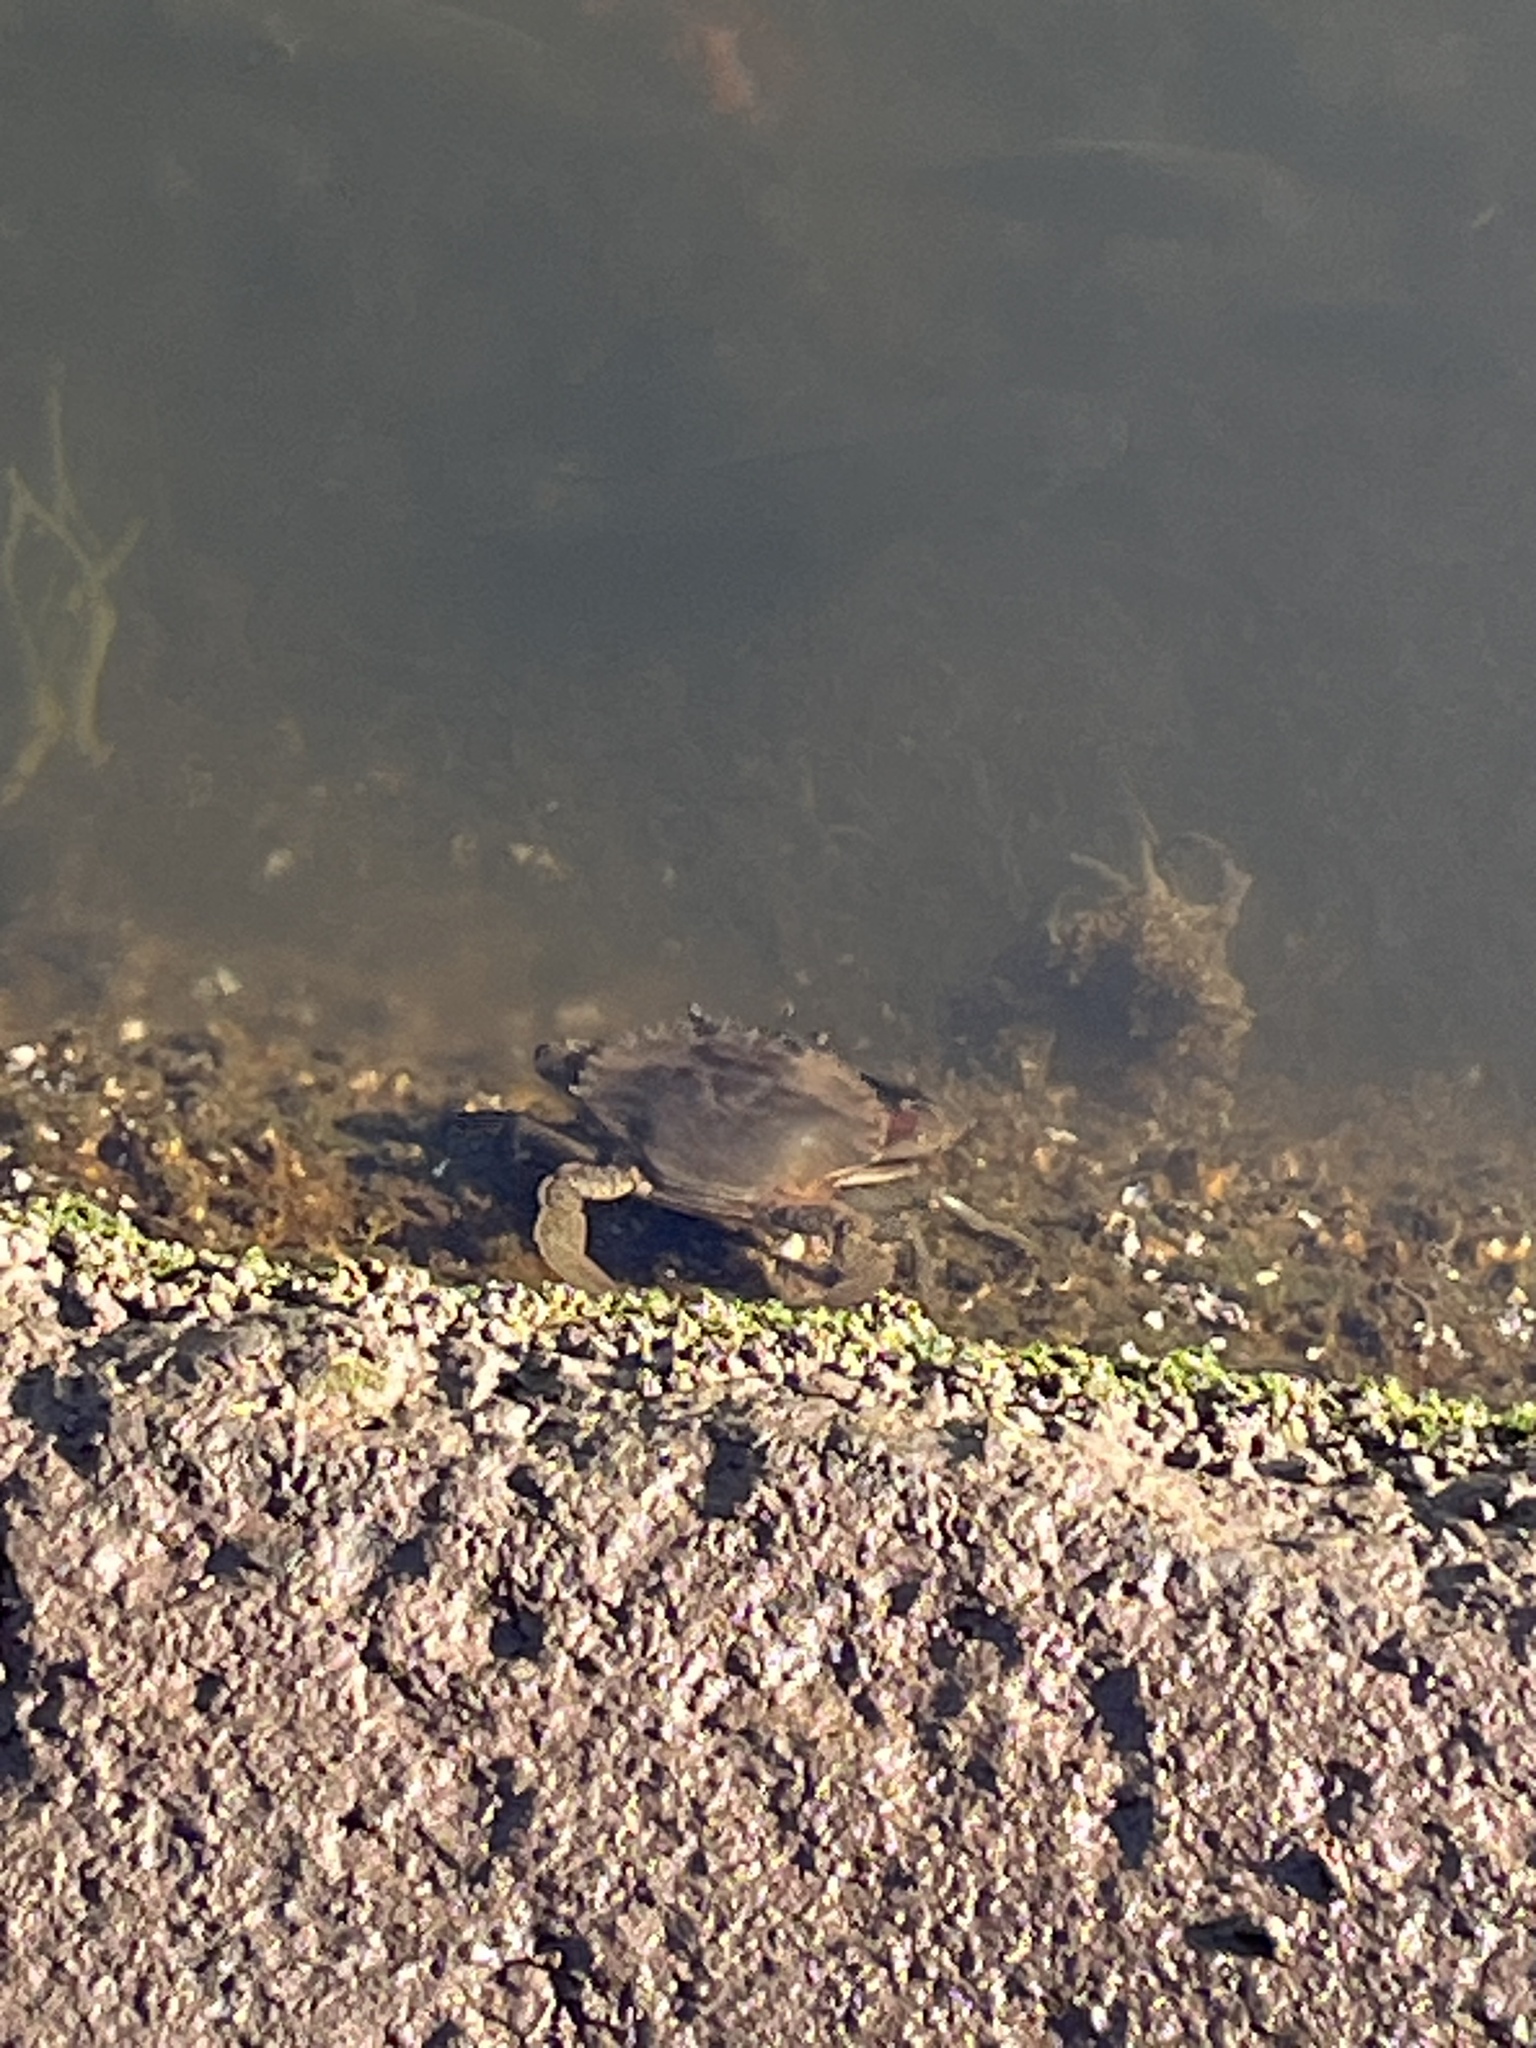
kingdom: Animalia
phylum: Arthropoda
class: Malacostraca
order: Decapoda
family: Portunidae
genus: Scylla
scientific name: Scylla serrata
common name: Giant mud crab
